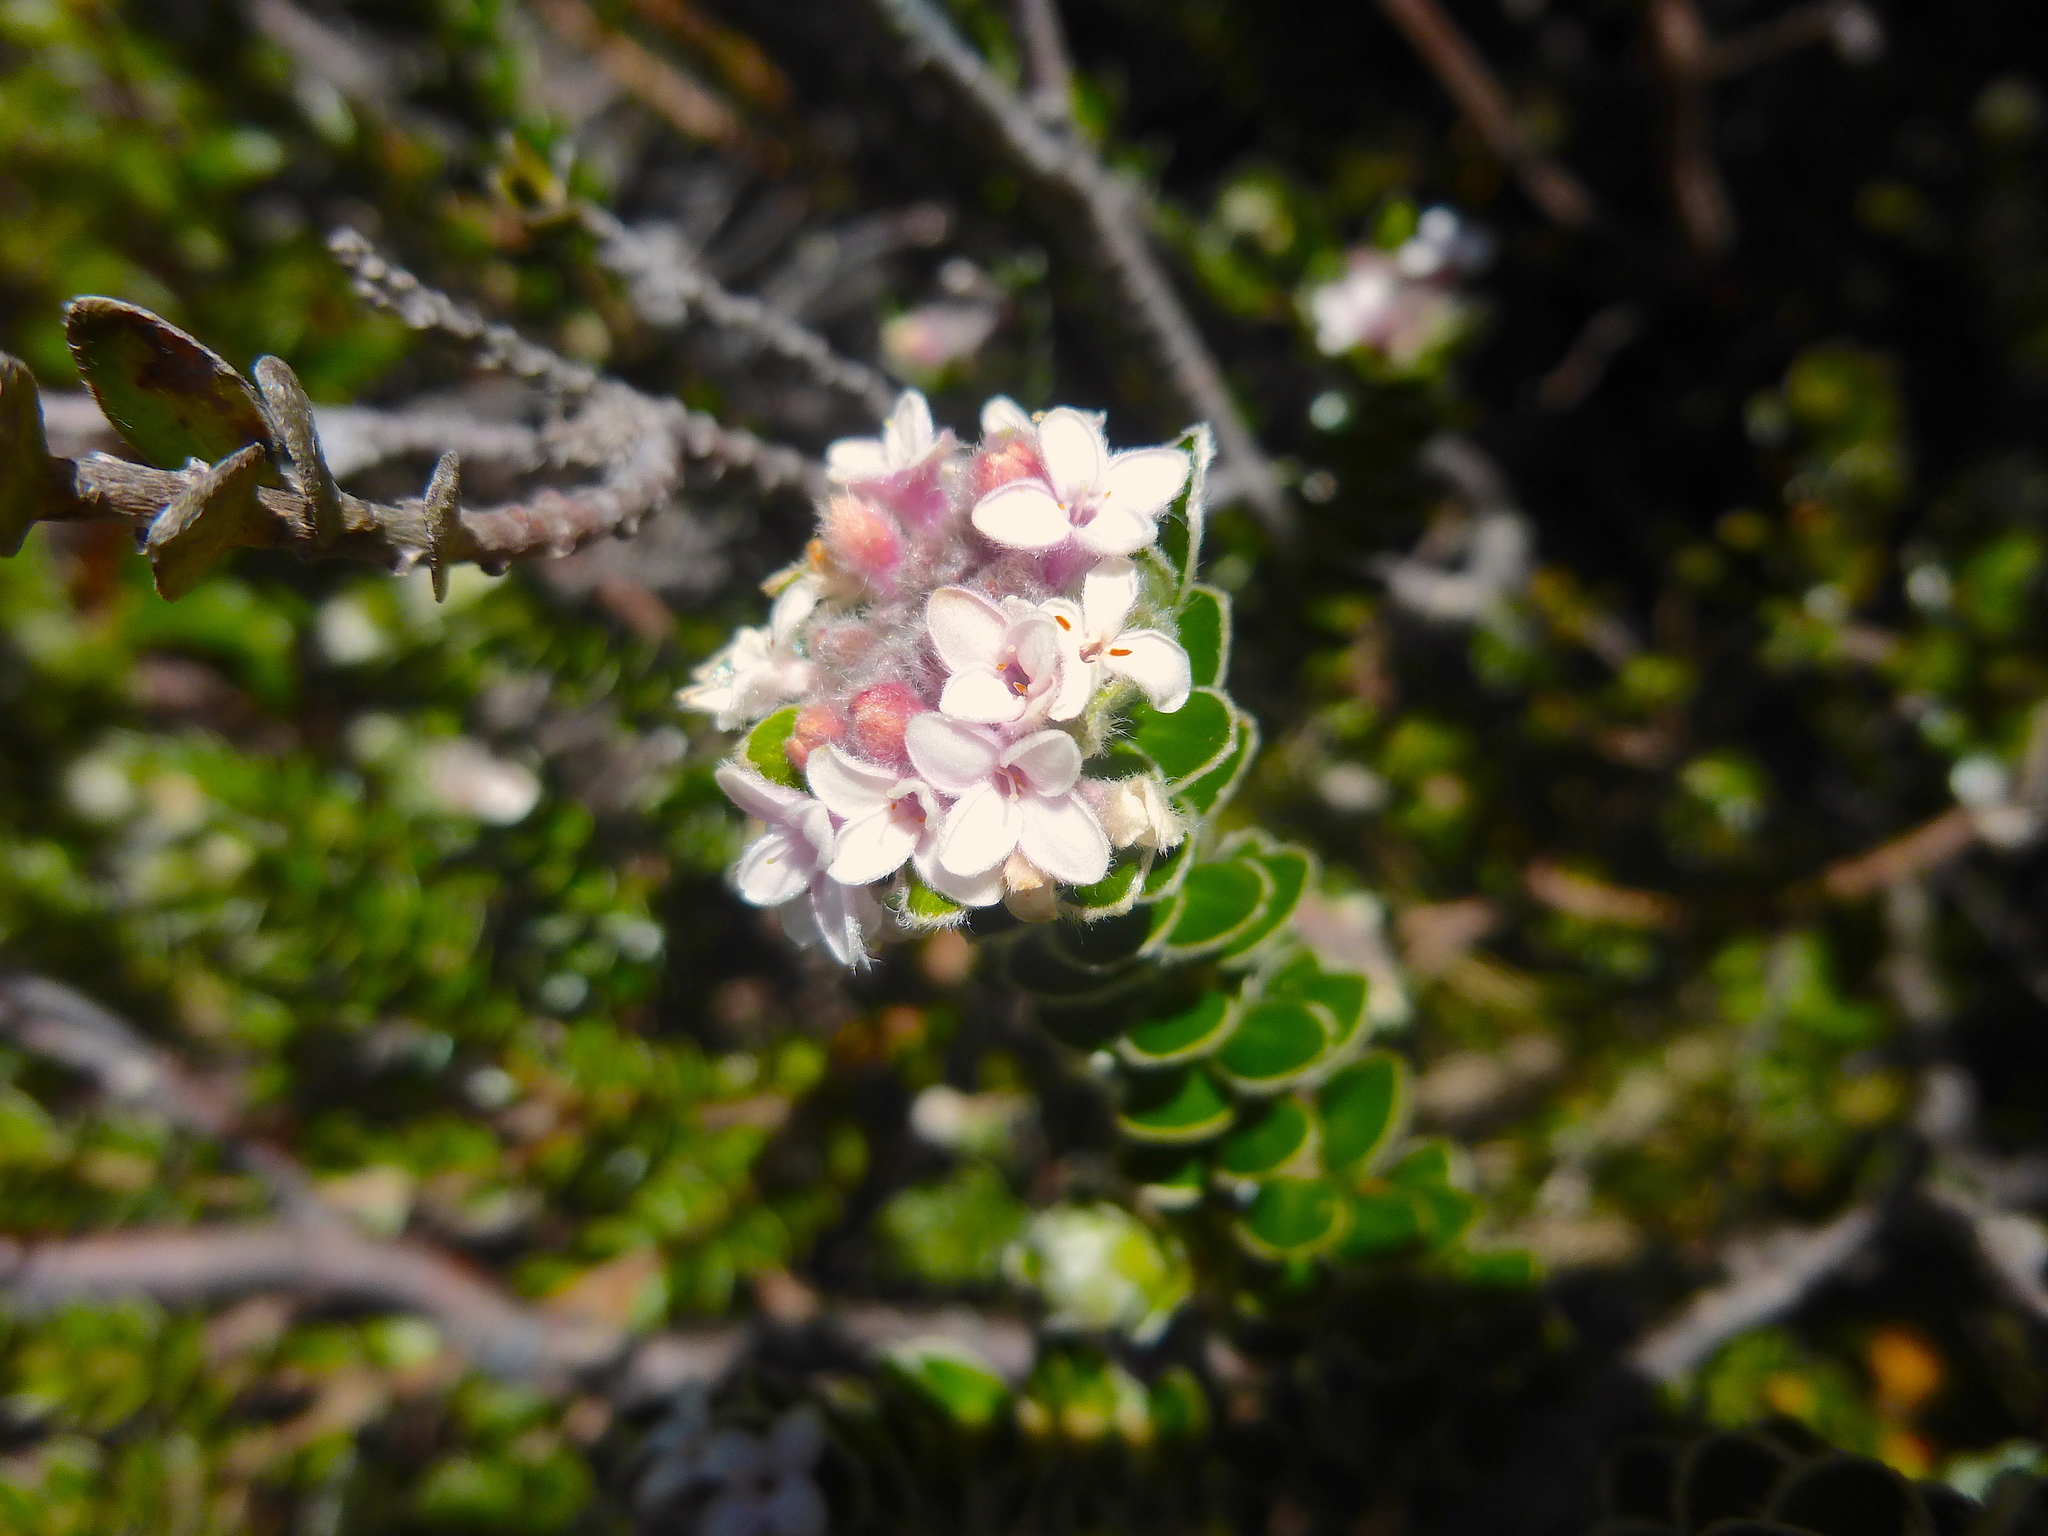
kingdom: Plantae
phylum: Tracheophyta
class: Magnoliopsida
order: Malvales
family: Thymelaeaceae
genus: Pimelea
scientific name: Pimelea sericea
